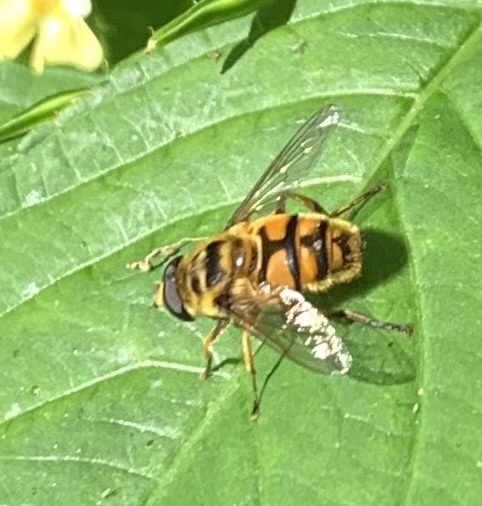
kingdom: Animalia
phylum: Arthropoda
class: Insecta
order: Diptera
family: Syrphidae
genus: Myathropa
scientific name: Myathropa florea
